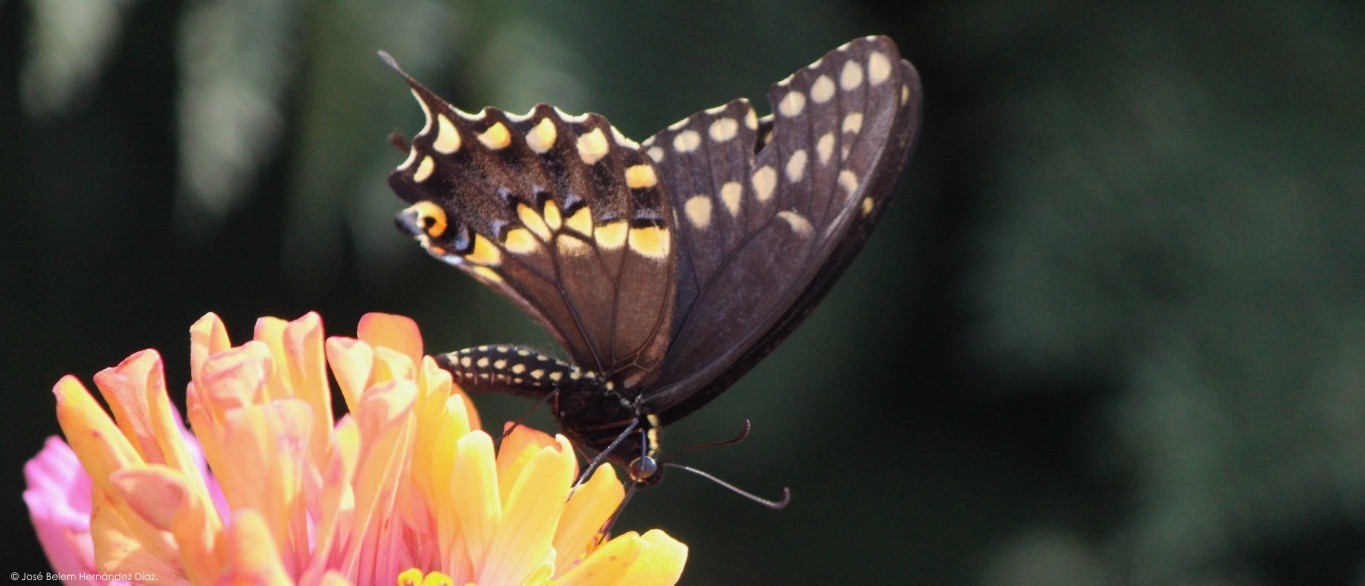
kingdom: Animalia
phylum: Arthropoda
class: Insecta
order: Lepidoptera
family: Papilionidae
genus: Papilio
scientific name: Papilio polyxenes
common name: Black swallowtail
